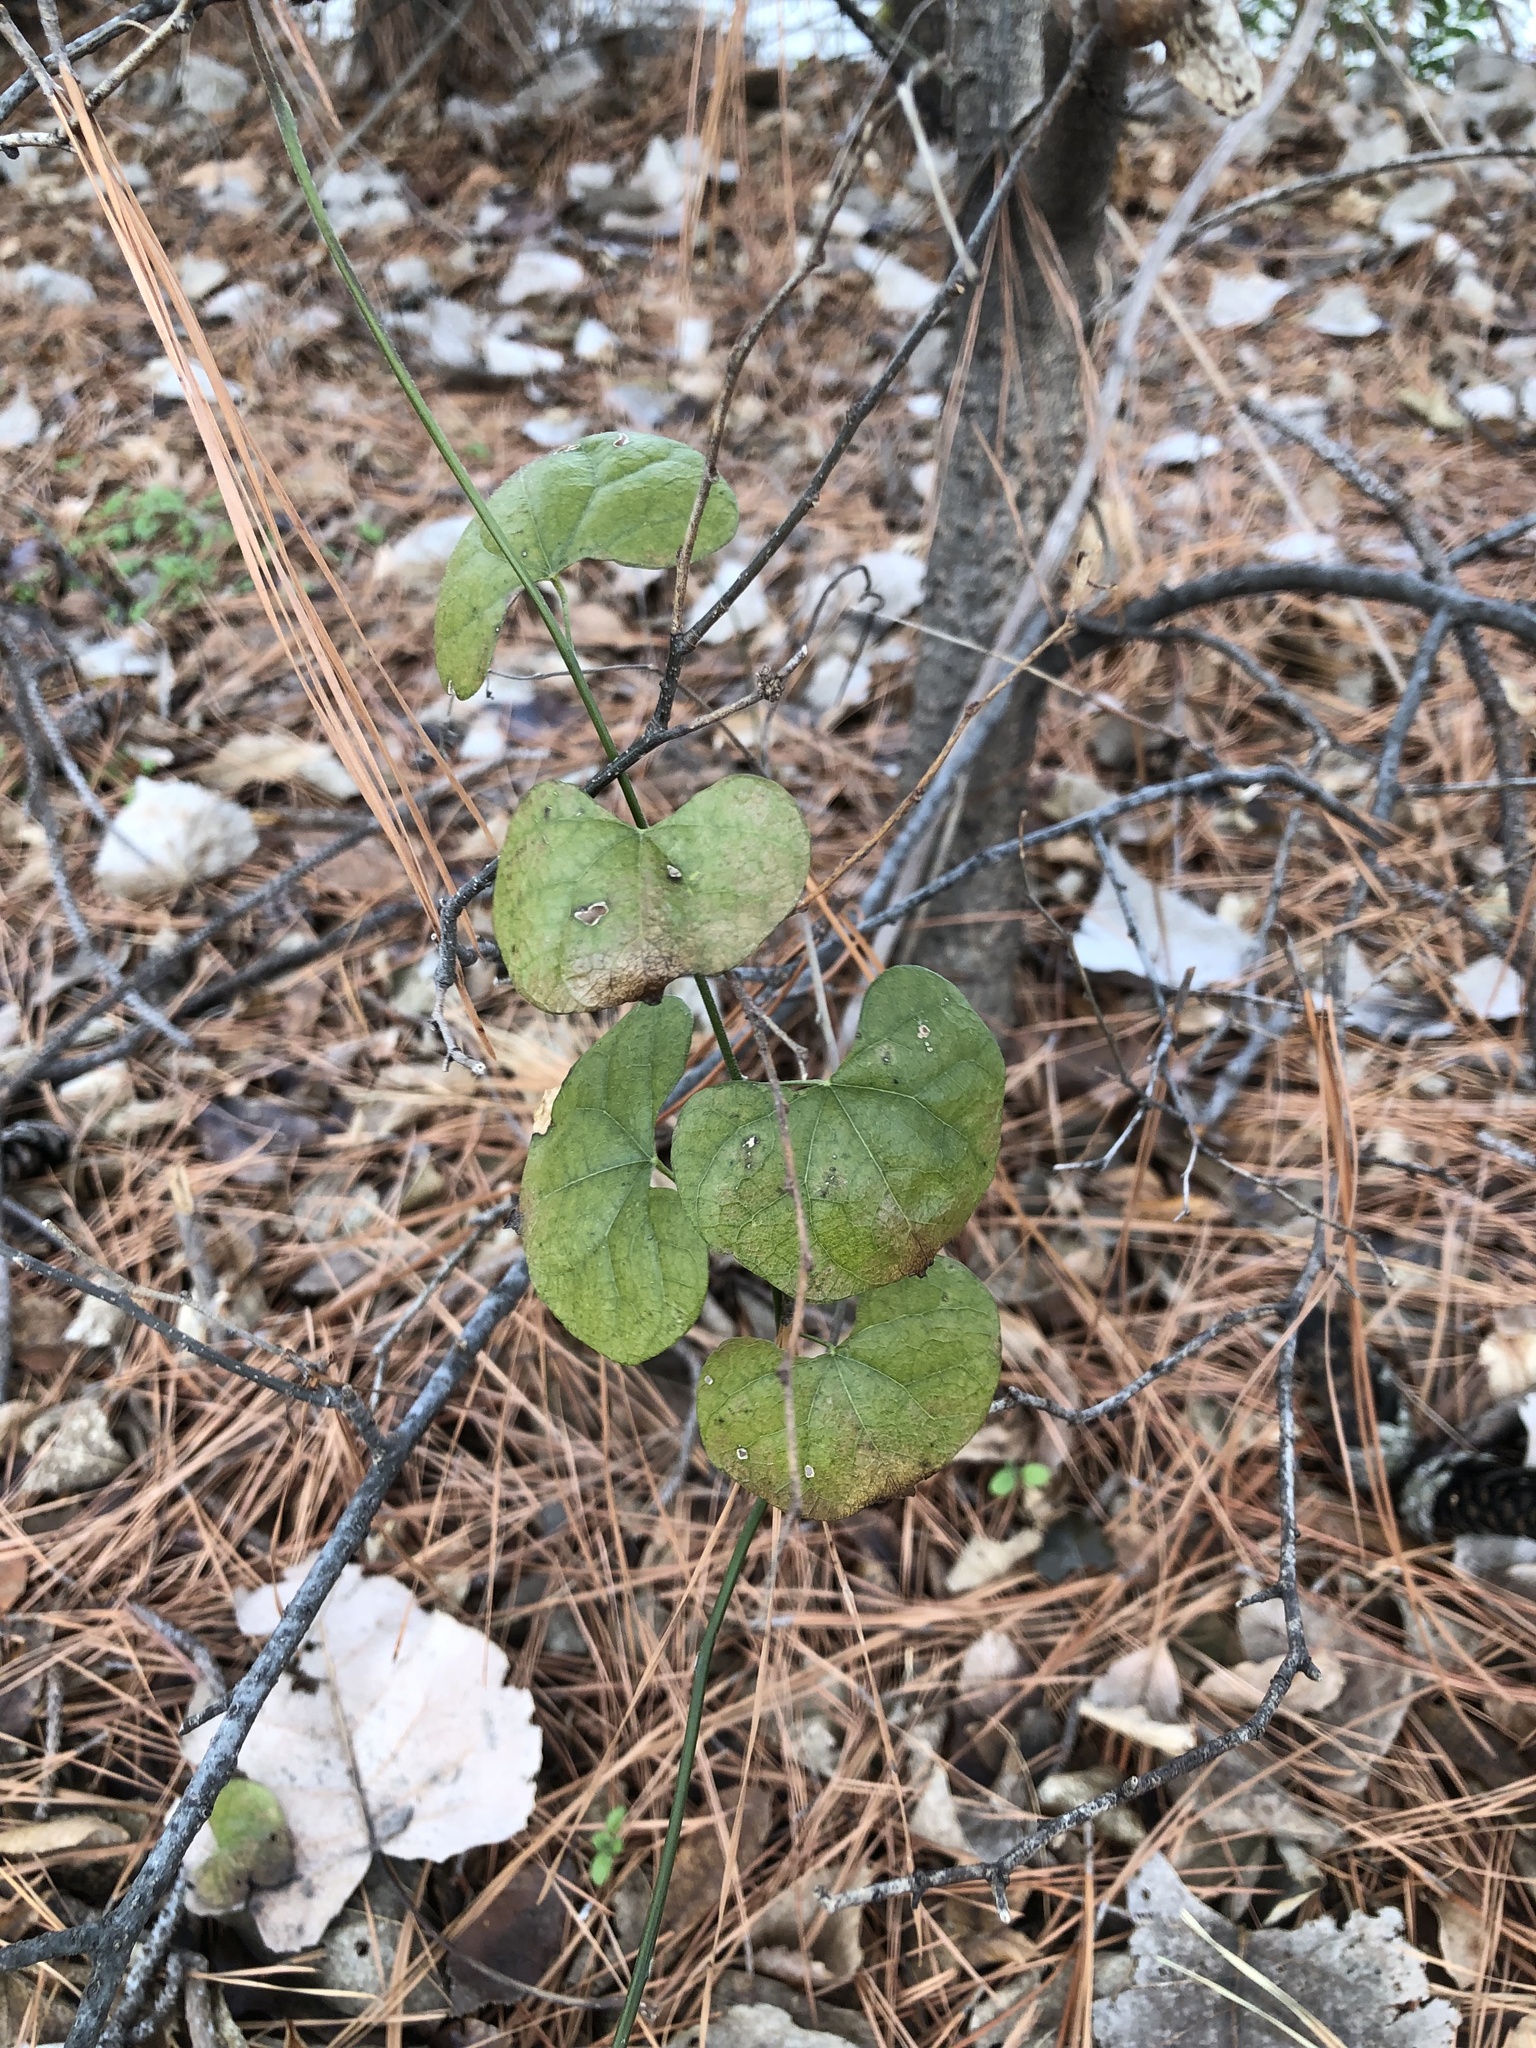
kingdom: Plantae
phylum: Tracheophyta
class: Magnoliopsida
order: Ranunculales
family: Menispermaceae
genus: Cocculus
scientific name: Cocculus carolinus
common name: Carolina moonseed
